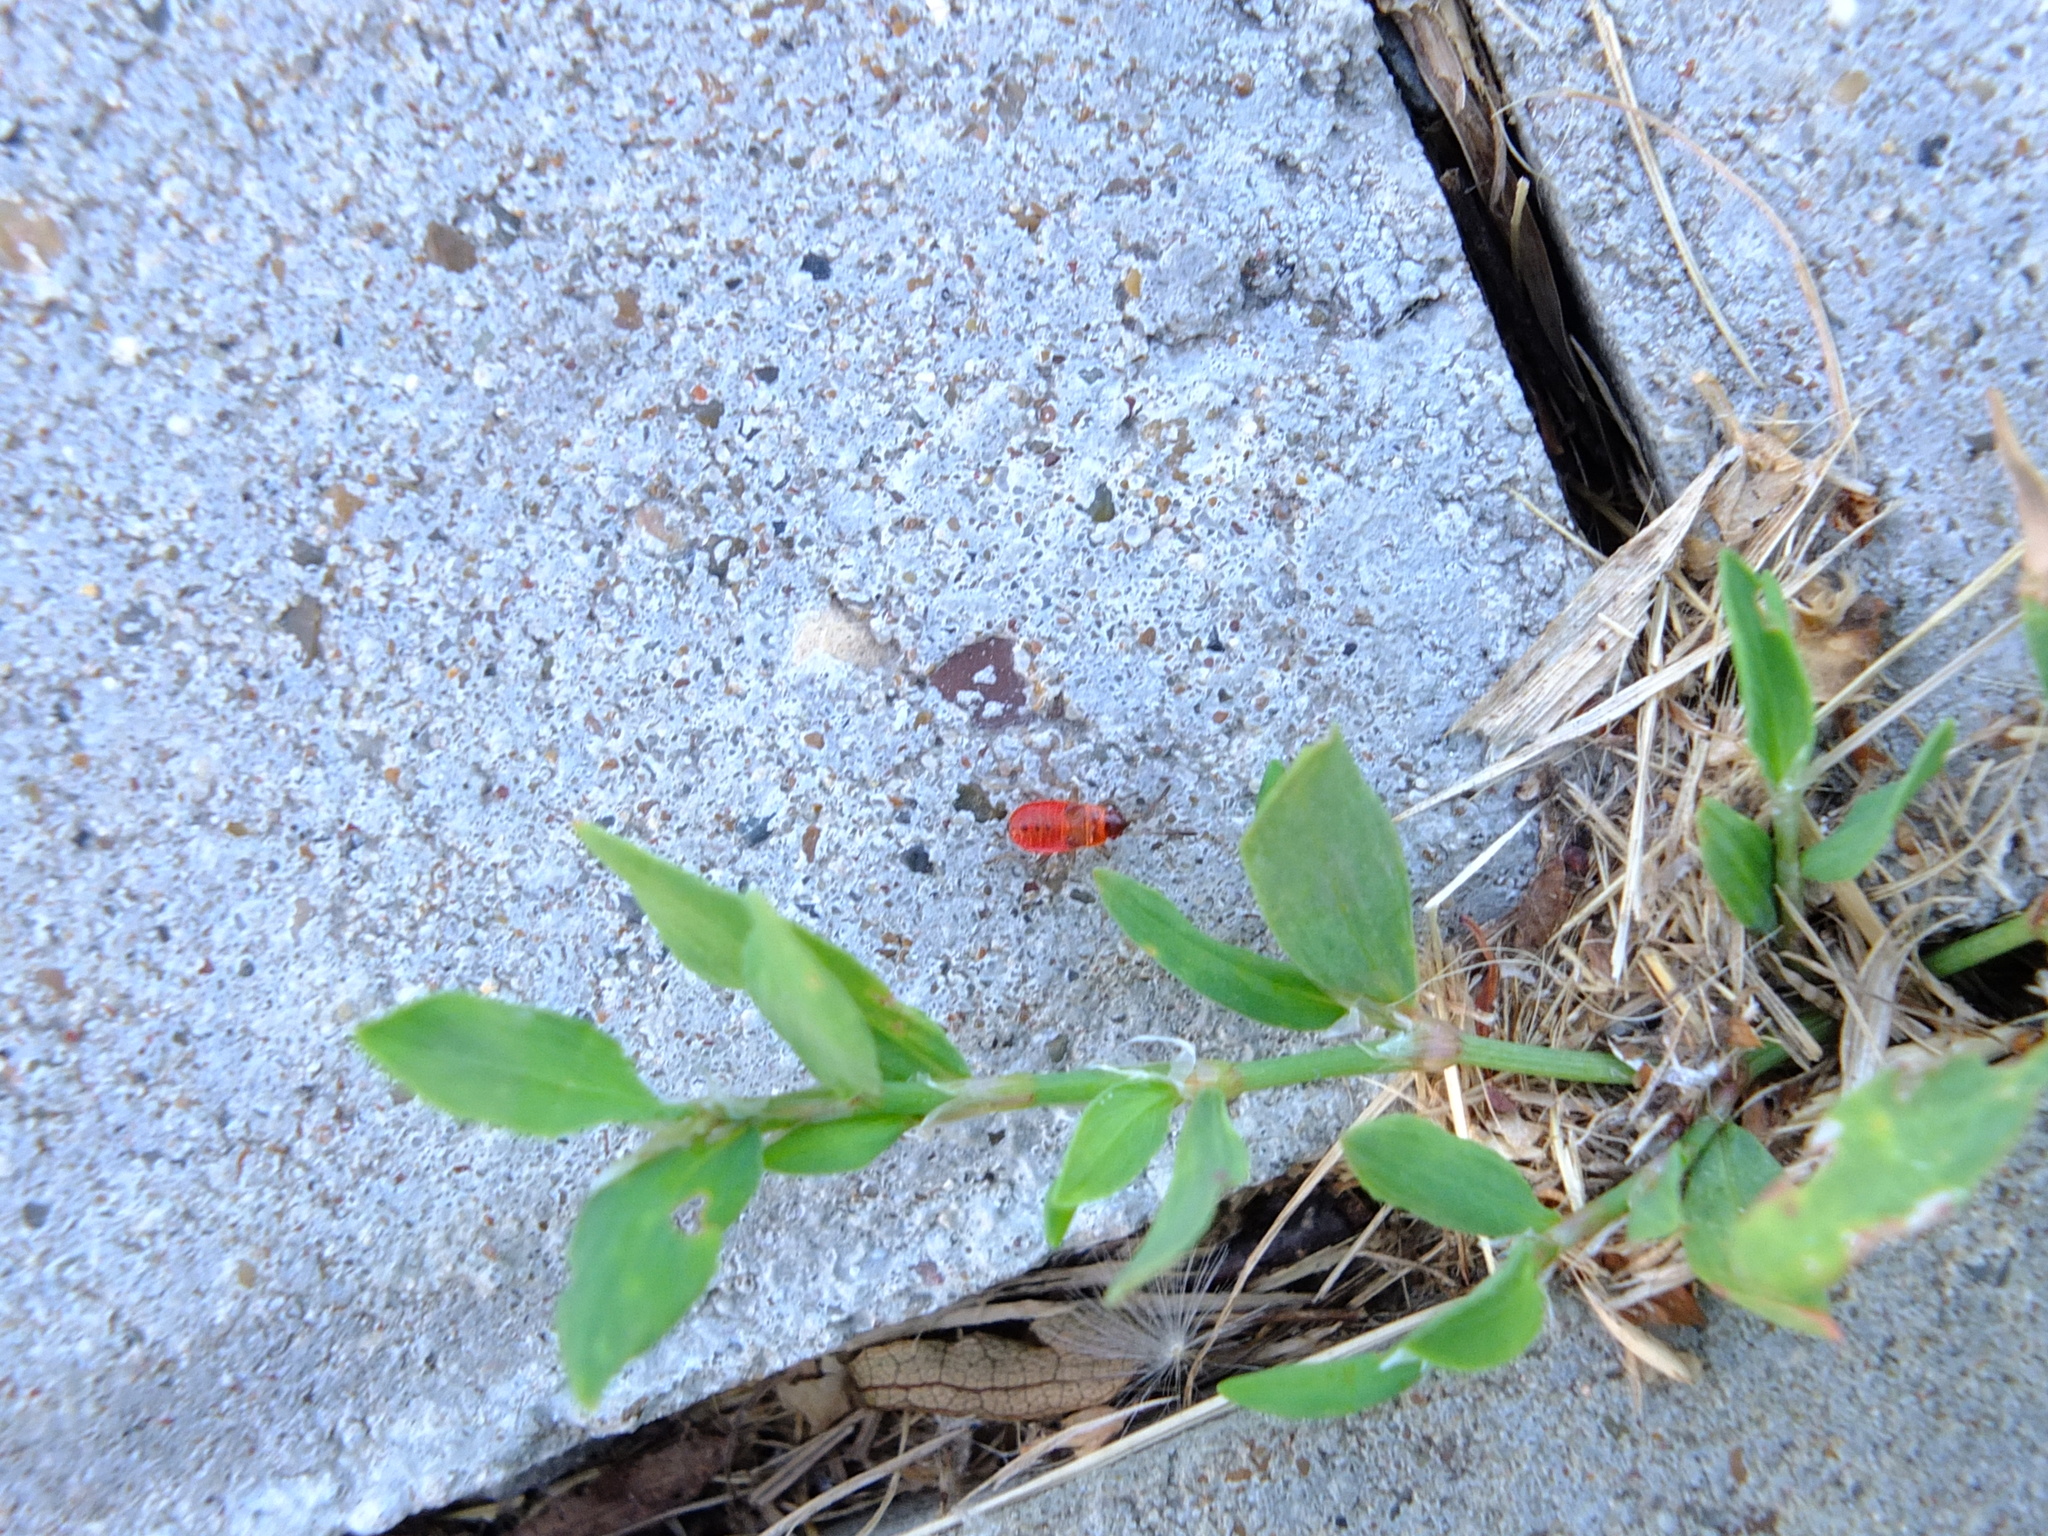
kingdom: Animalia
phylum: Arthropoda
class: Insecta
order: Hemiptera
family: Pyrrhocoridae
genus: Pyrrhocoris
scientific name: Pyrrhocoris apterus
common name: Firebug
